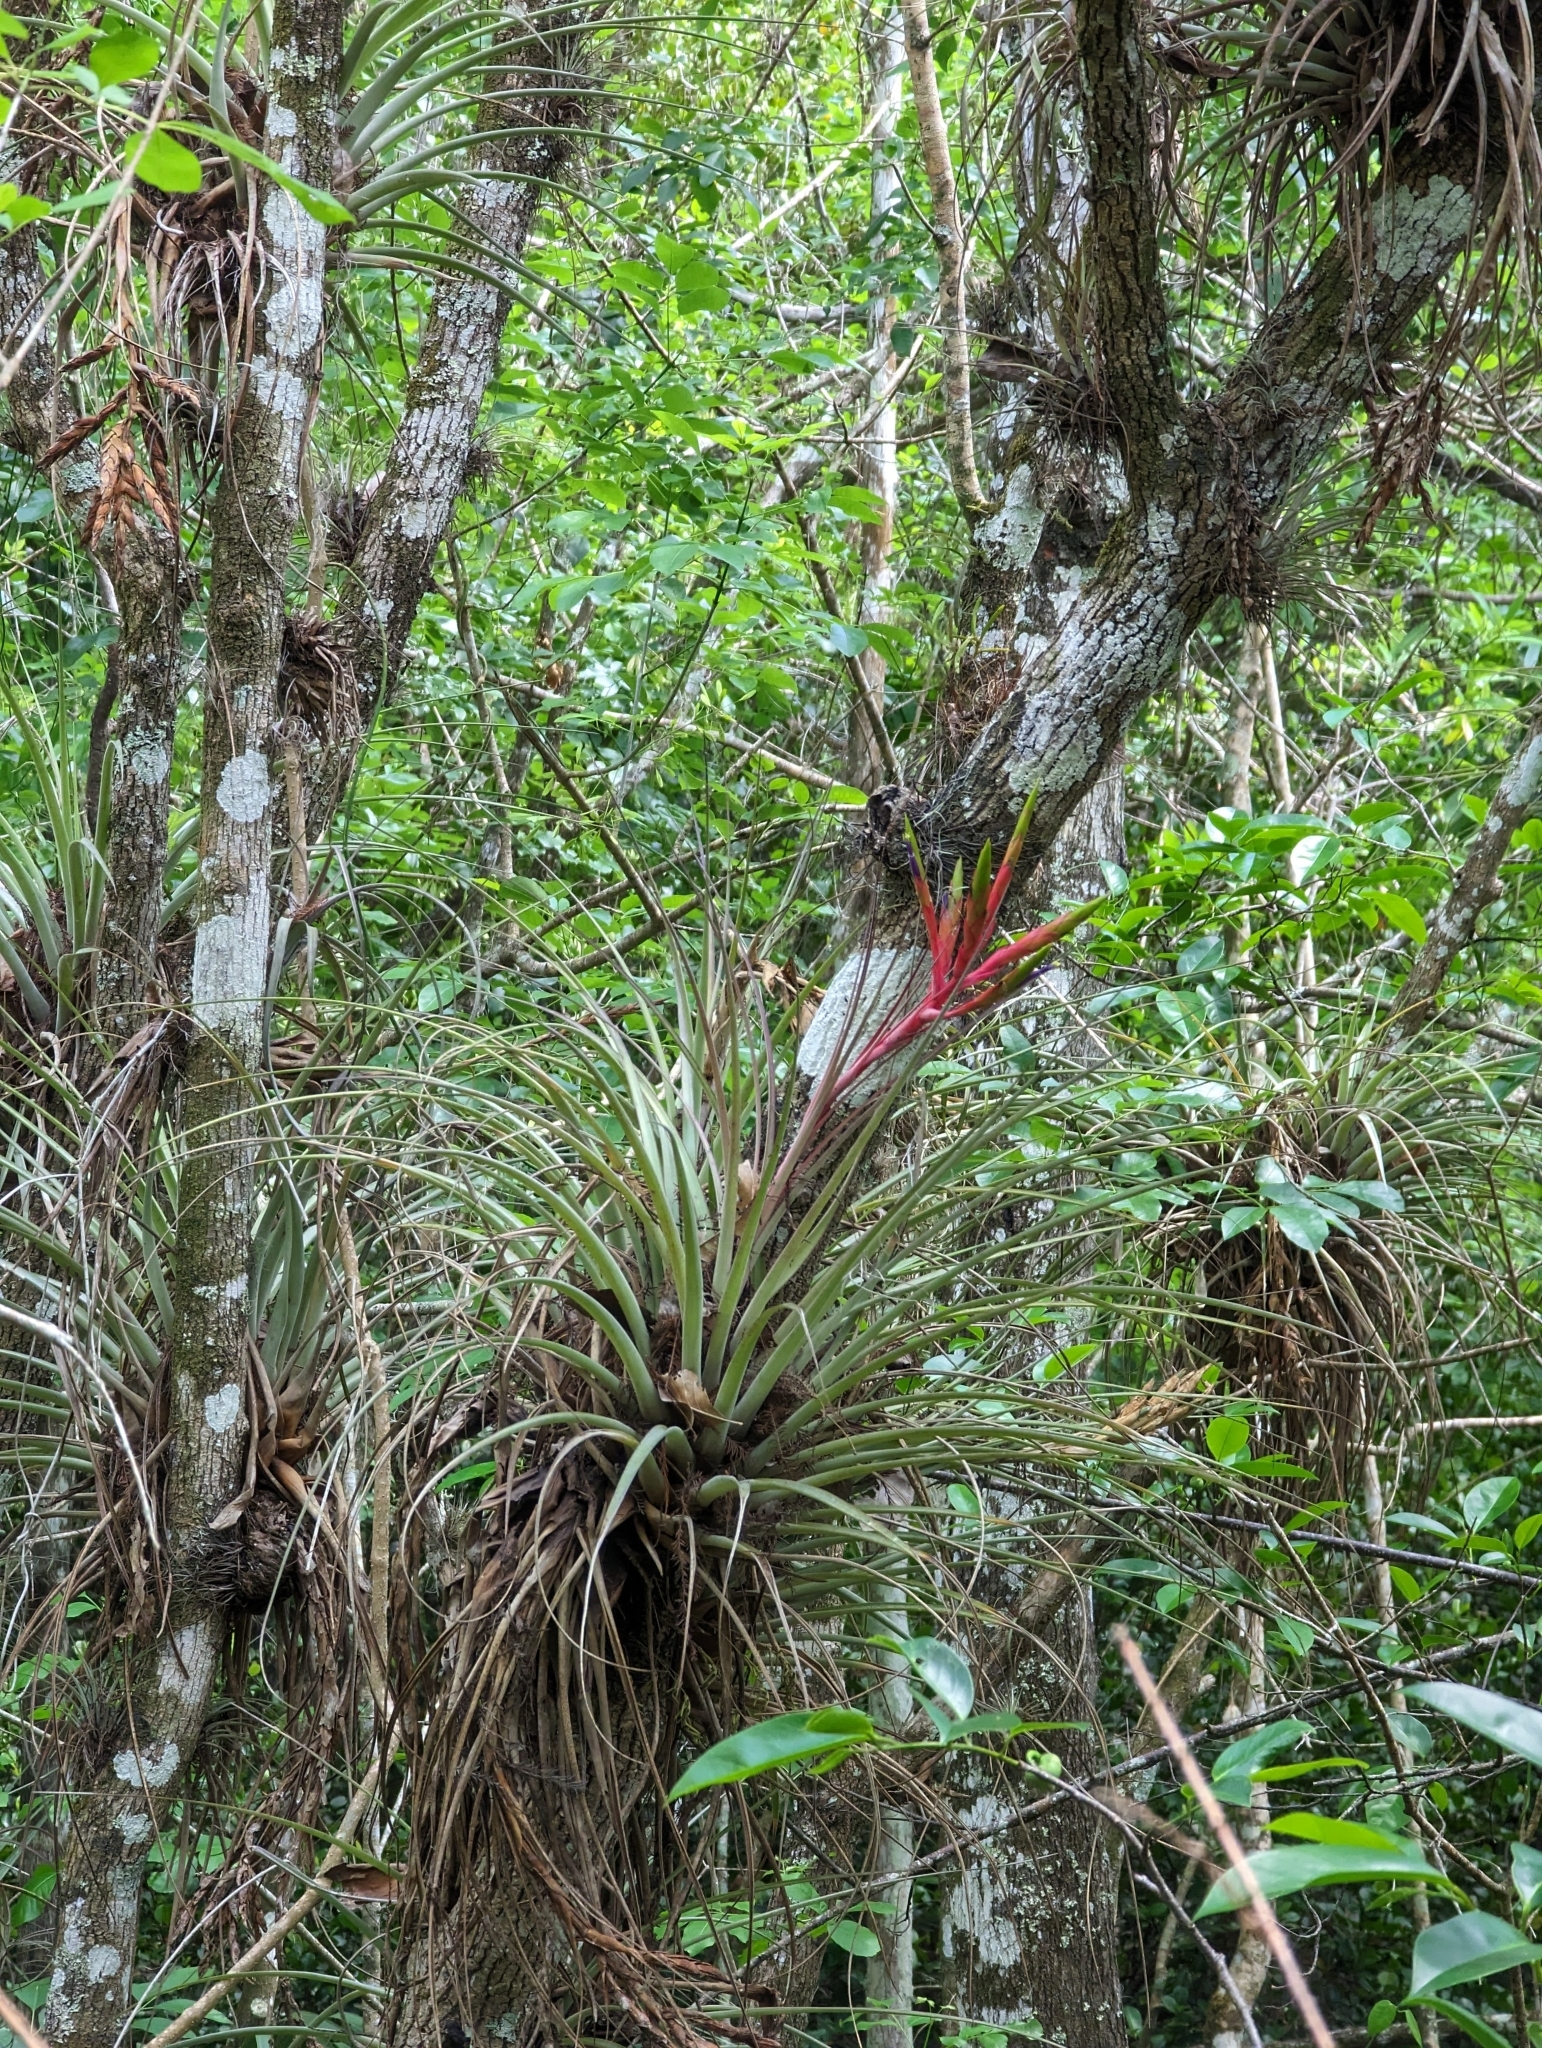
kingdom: Plantae
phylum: Tracheophyta
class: Liliopsida
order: Poales
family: Bromeliaceae
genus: Tillandsia
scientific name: Tillandsia fasciculata
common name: Giant airplant
